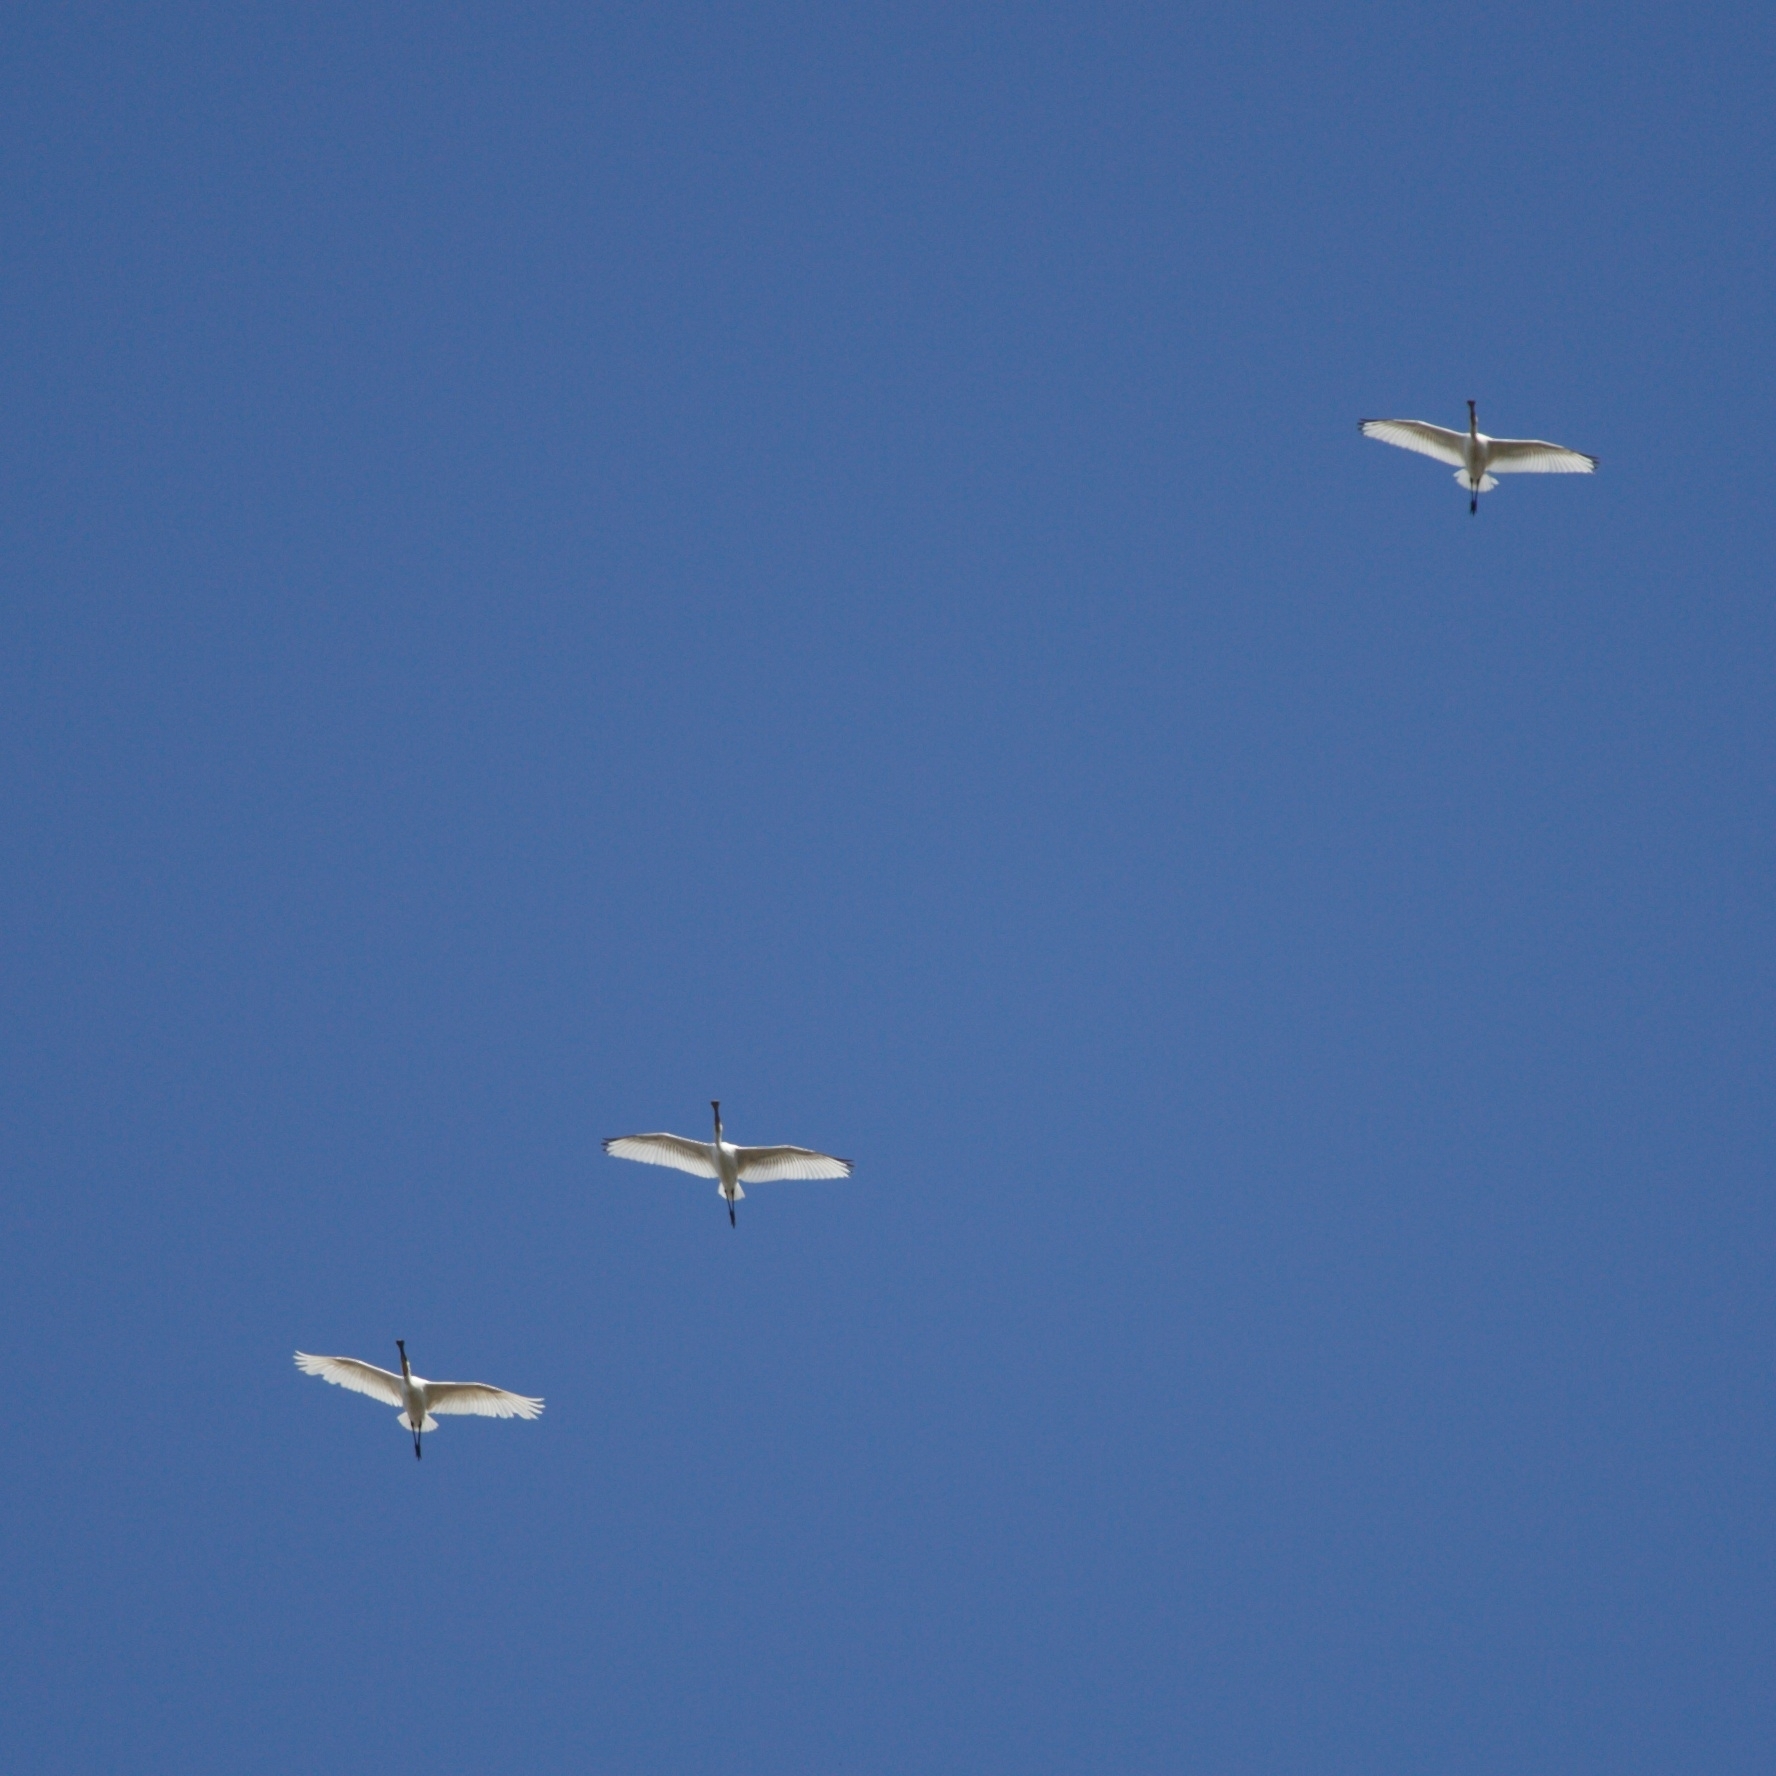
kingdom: Animalia
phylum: Chordata
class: Aves
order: Pelecaniformes
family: Threskiornithidae
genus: Platalea
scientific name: Platalea leucorodia
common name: Eurasian spoonbill
